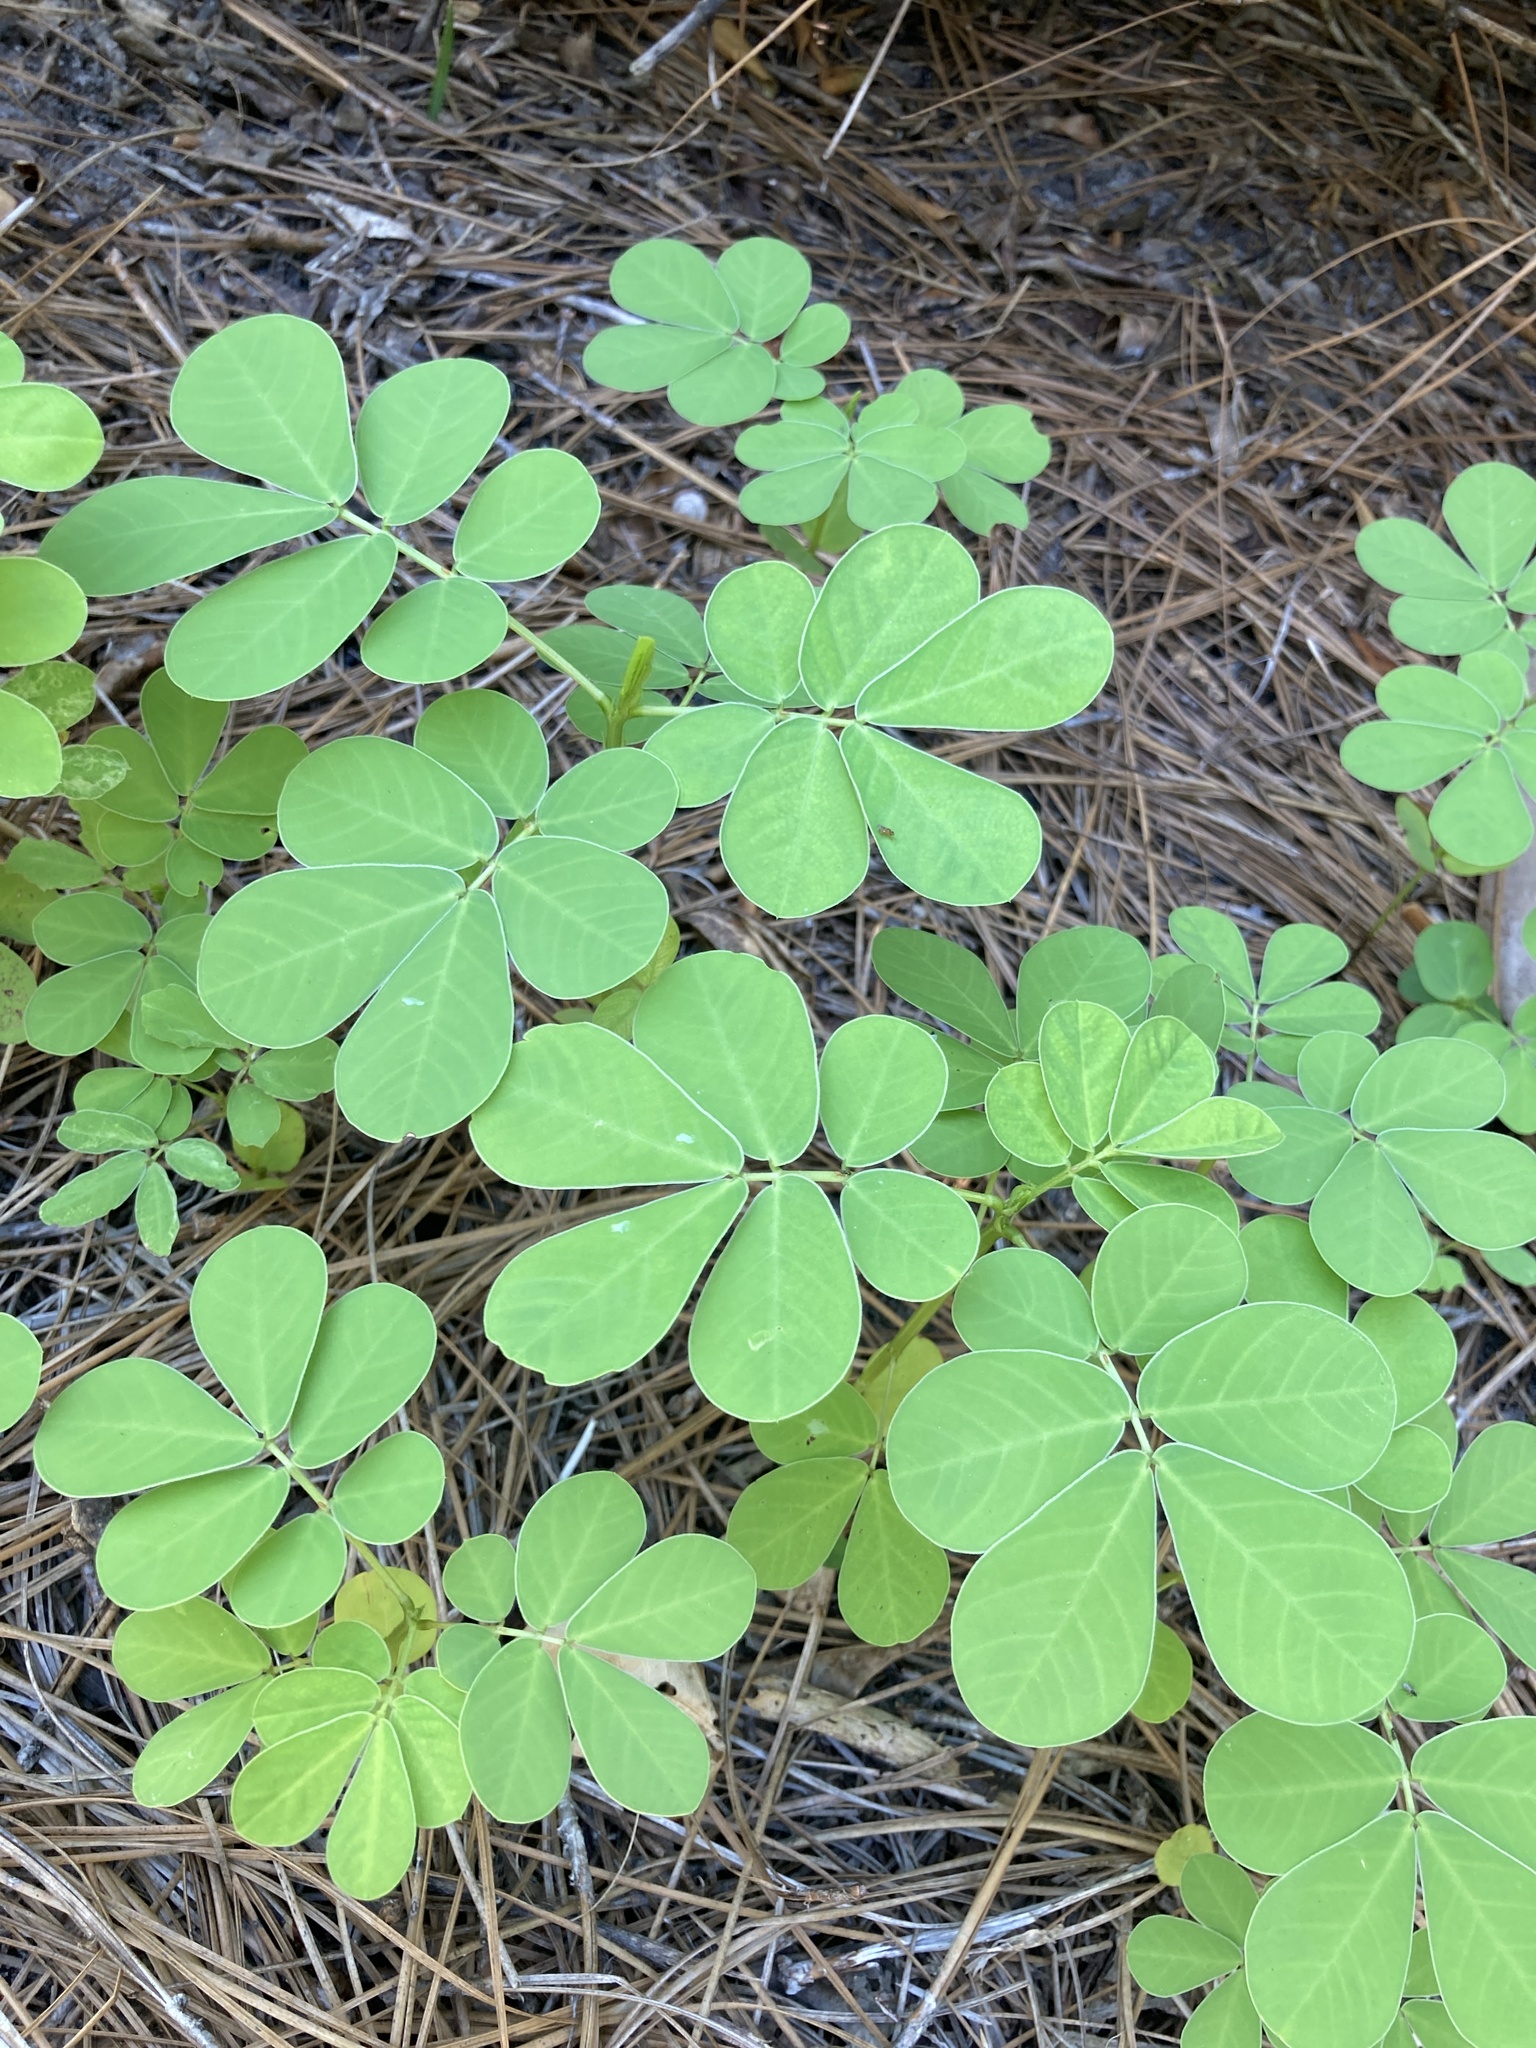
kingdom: Plantae
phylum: Tracheophyta
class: Magnoliopsida
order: Fabales
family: Fabaceae
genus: Senna
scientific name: Senna obtusifolia
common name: Java-bean
